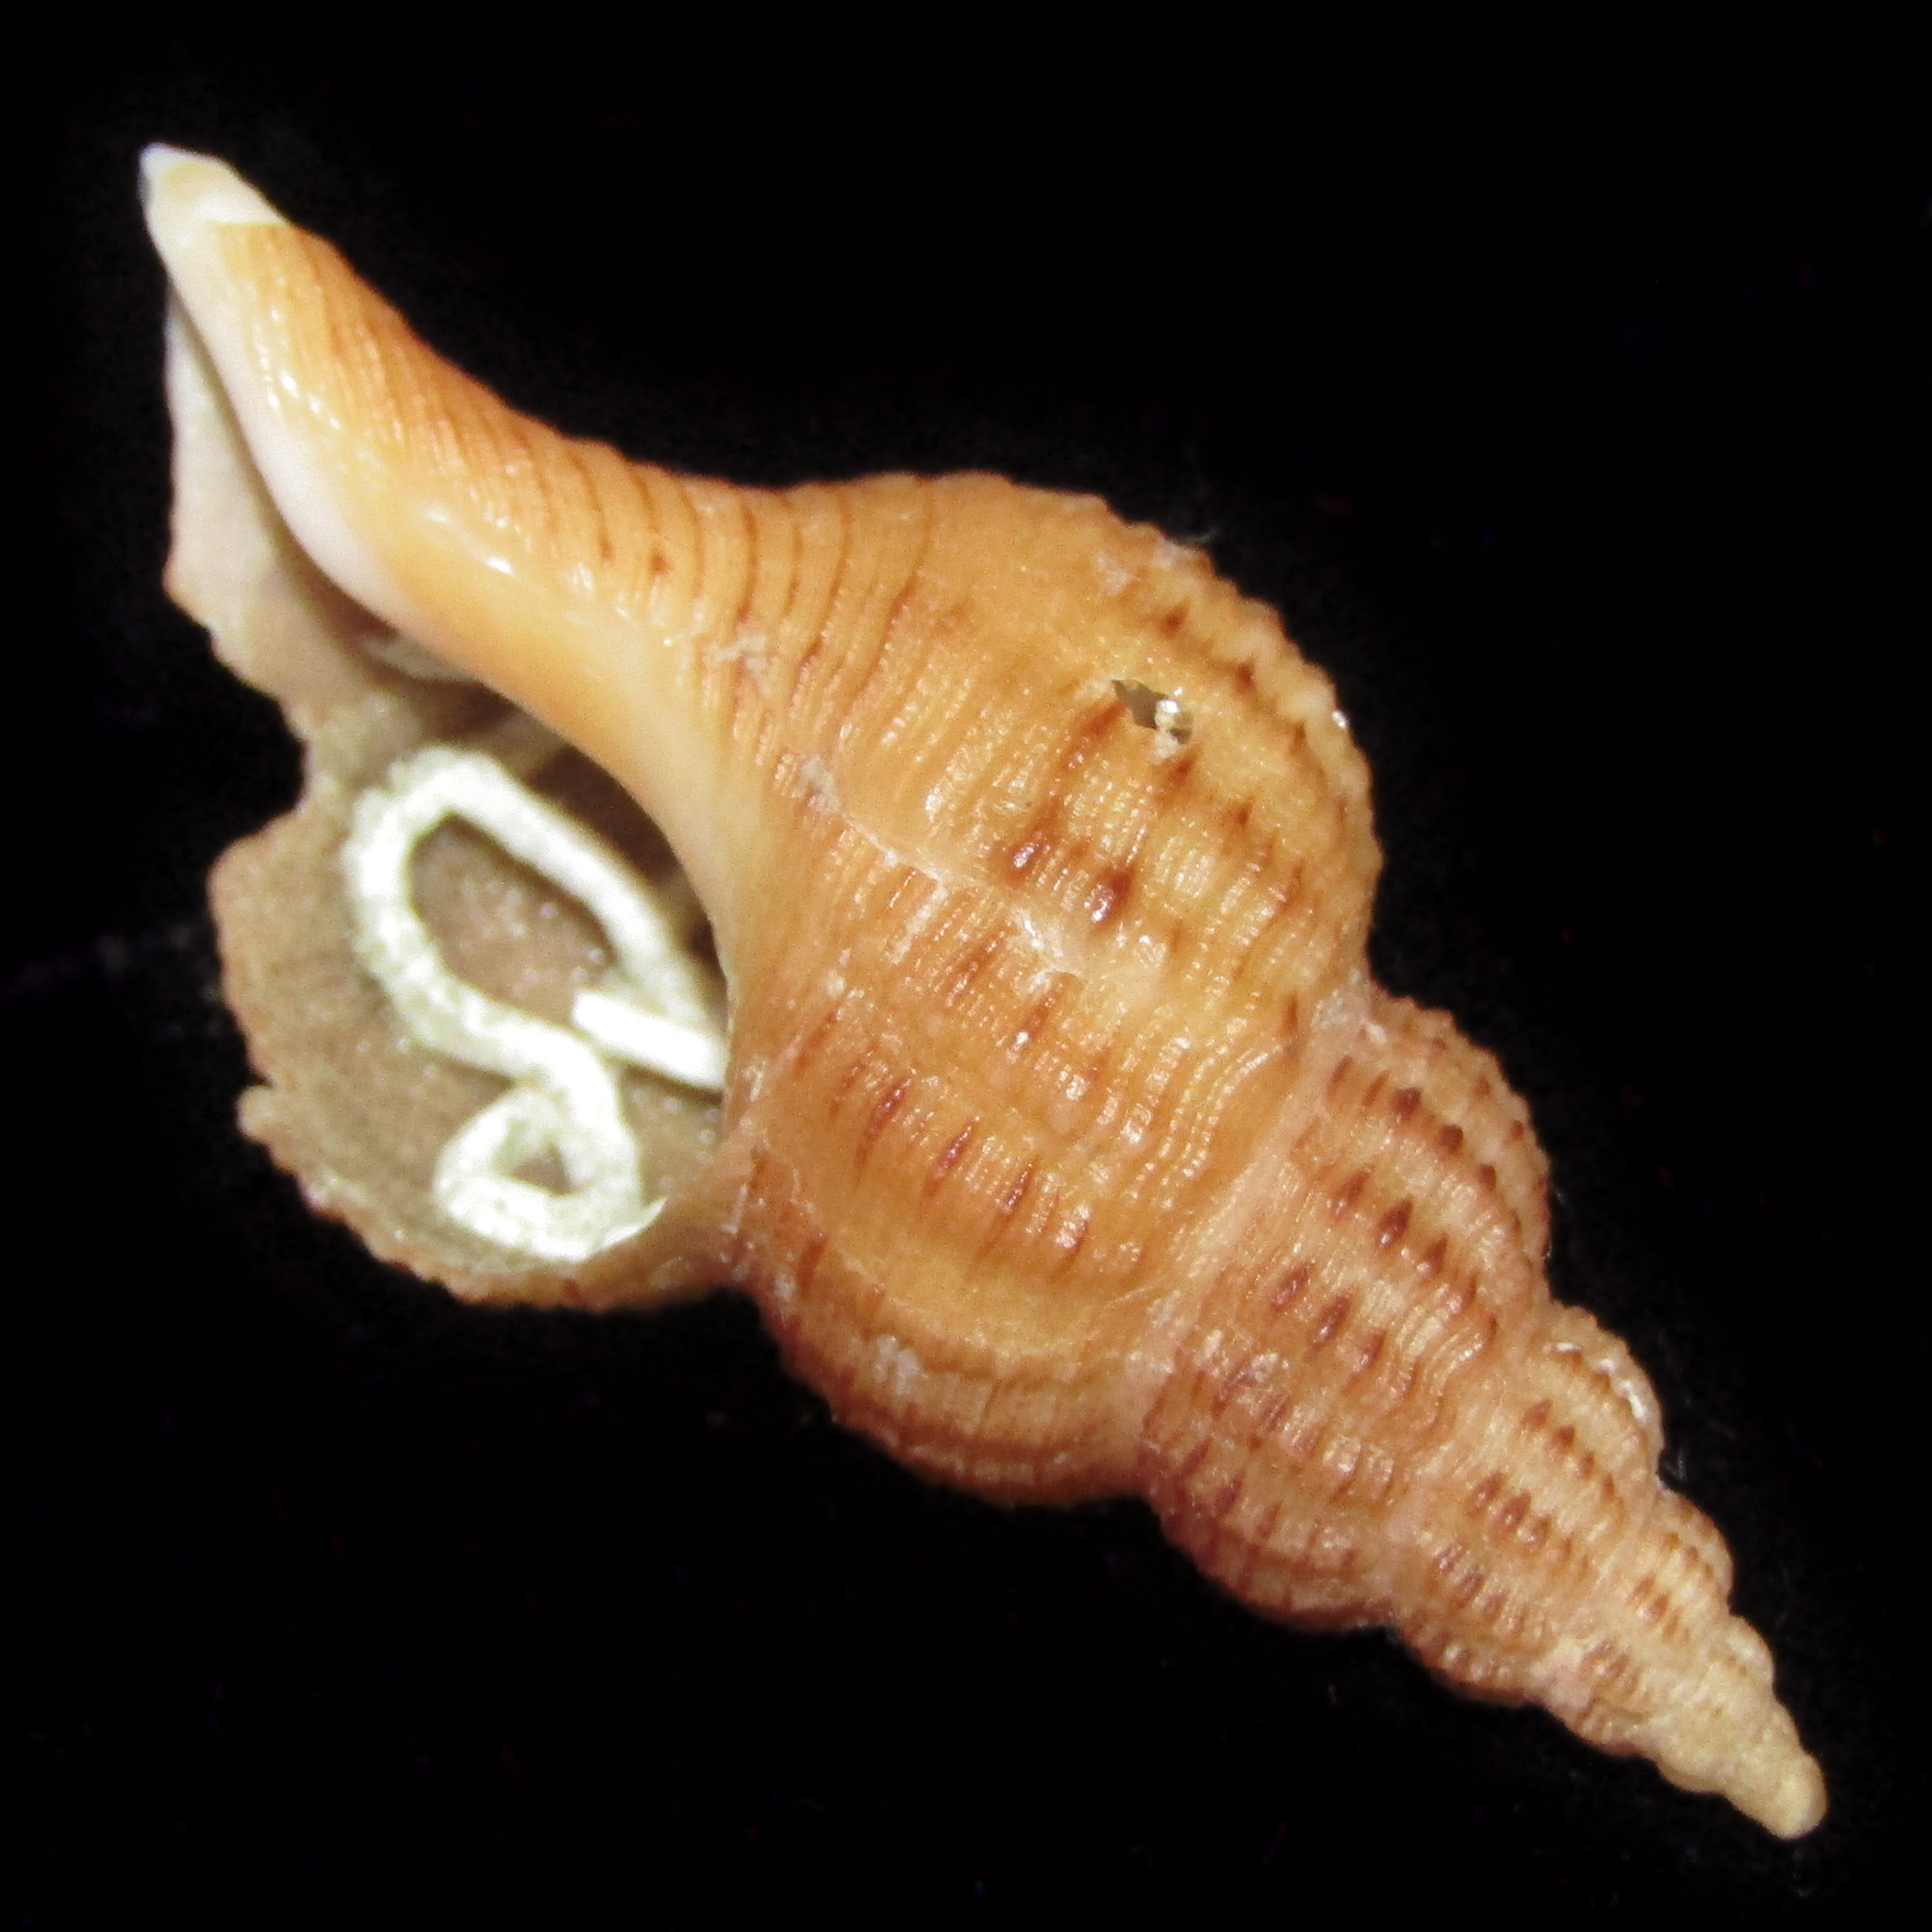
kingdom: Animalia
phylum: Mollusca
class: Gastropoda
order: Neogastropoda
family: Fasciolariidae
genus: Glaphyrina
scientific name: Glaphyrina caudata
